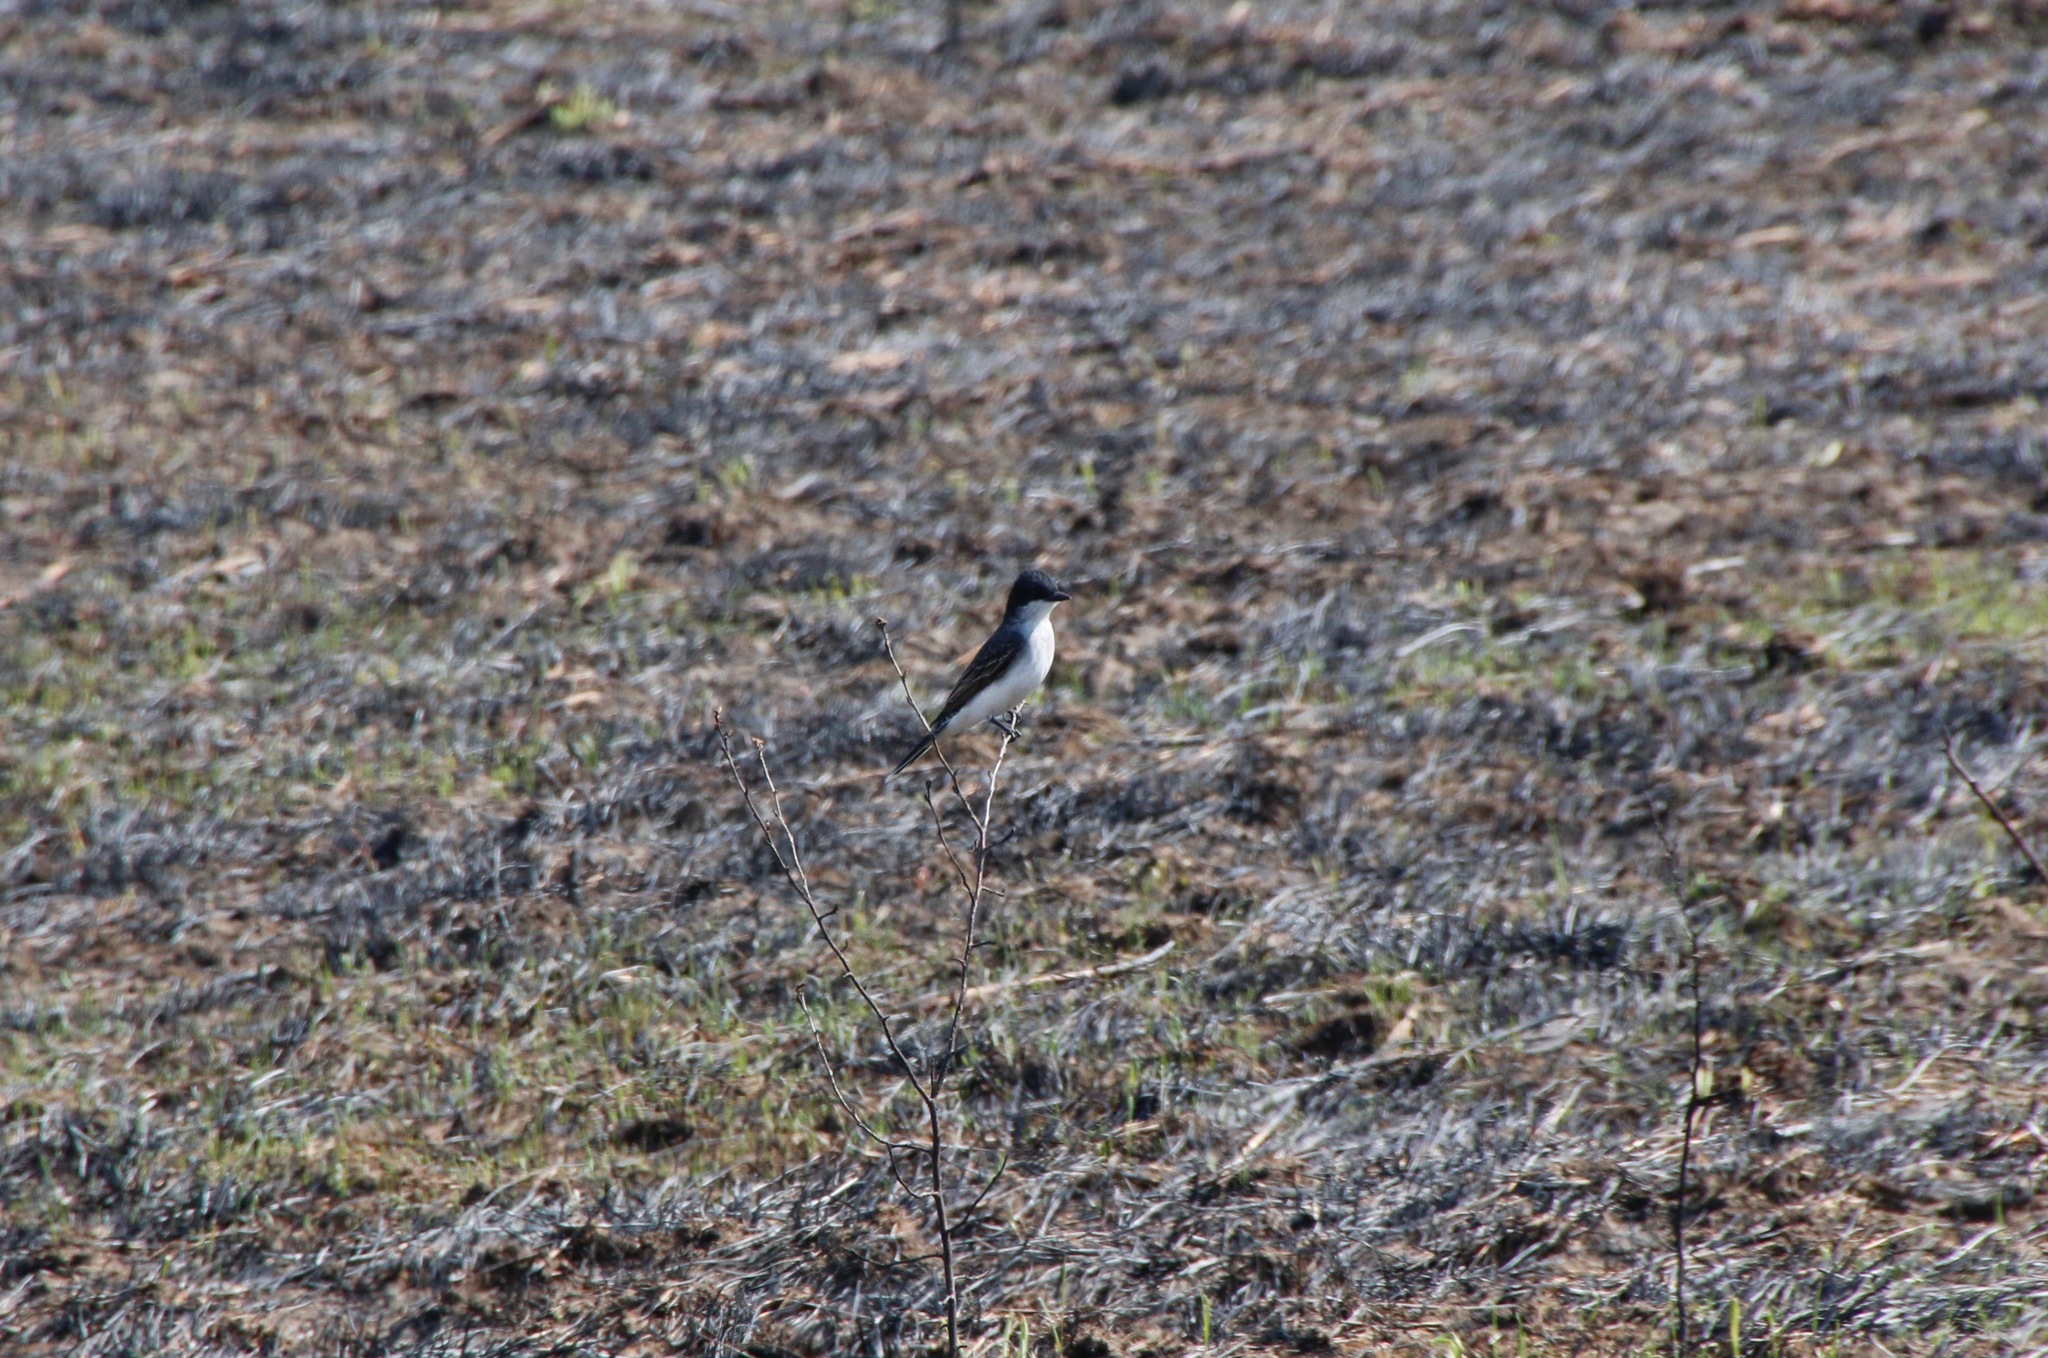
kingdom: Animalia
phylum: Chordata
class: Aves
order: Passeriformes
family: Tyrannidae
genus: Tyrannus
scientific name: Tyrannus tyrannus
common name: Eastern kingbird
